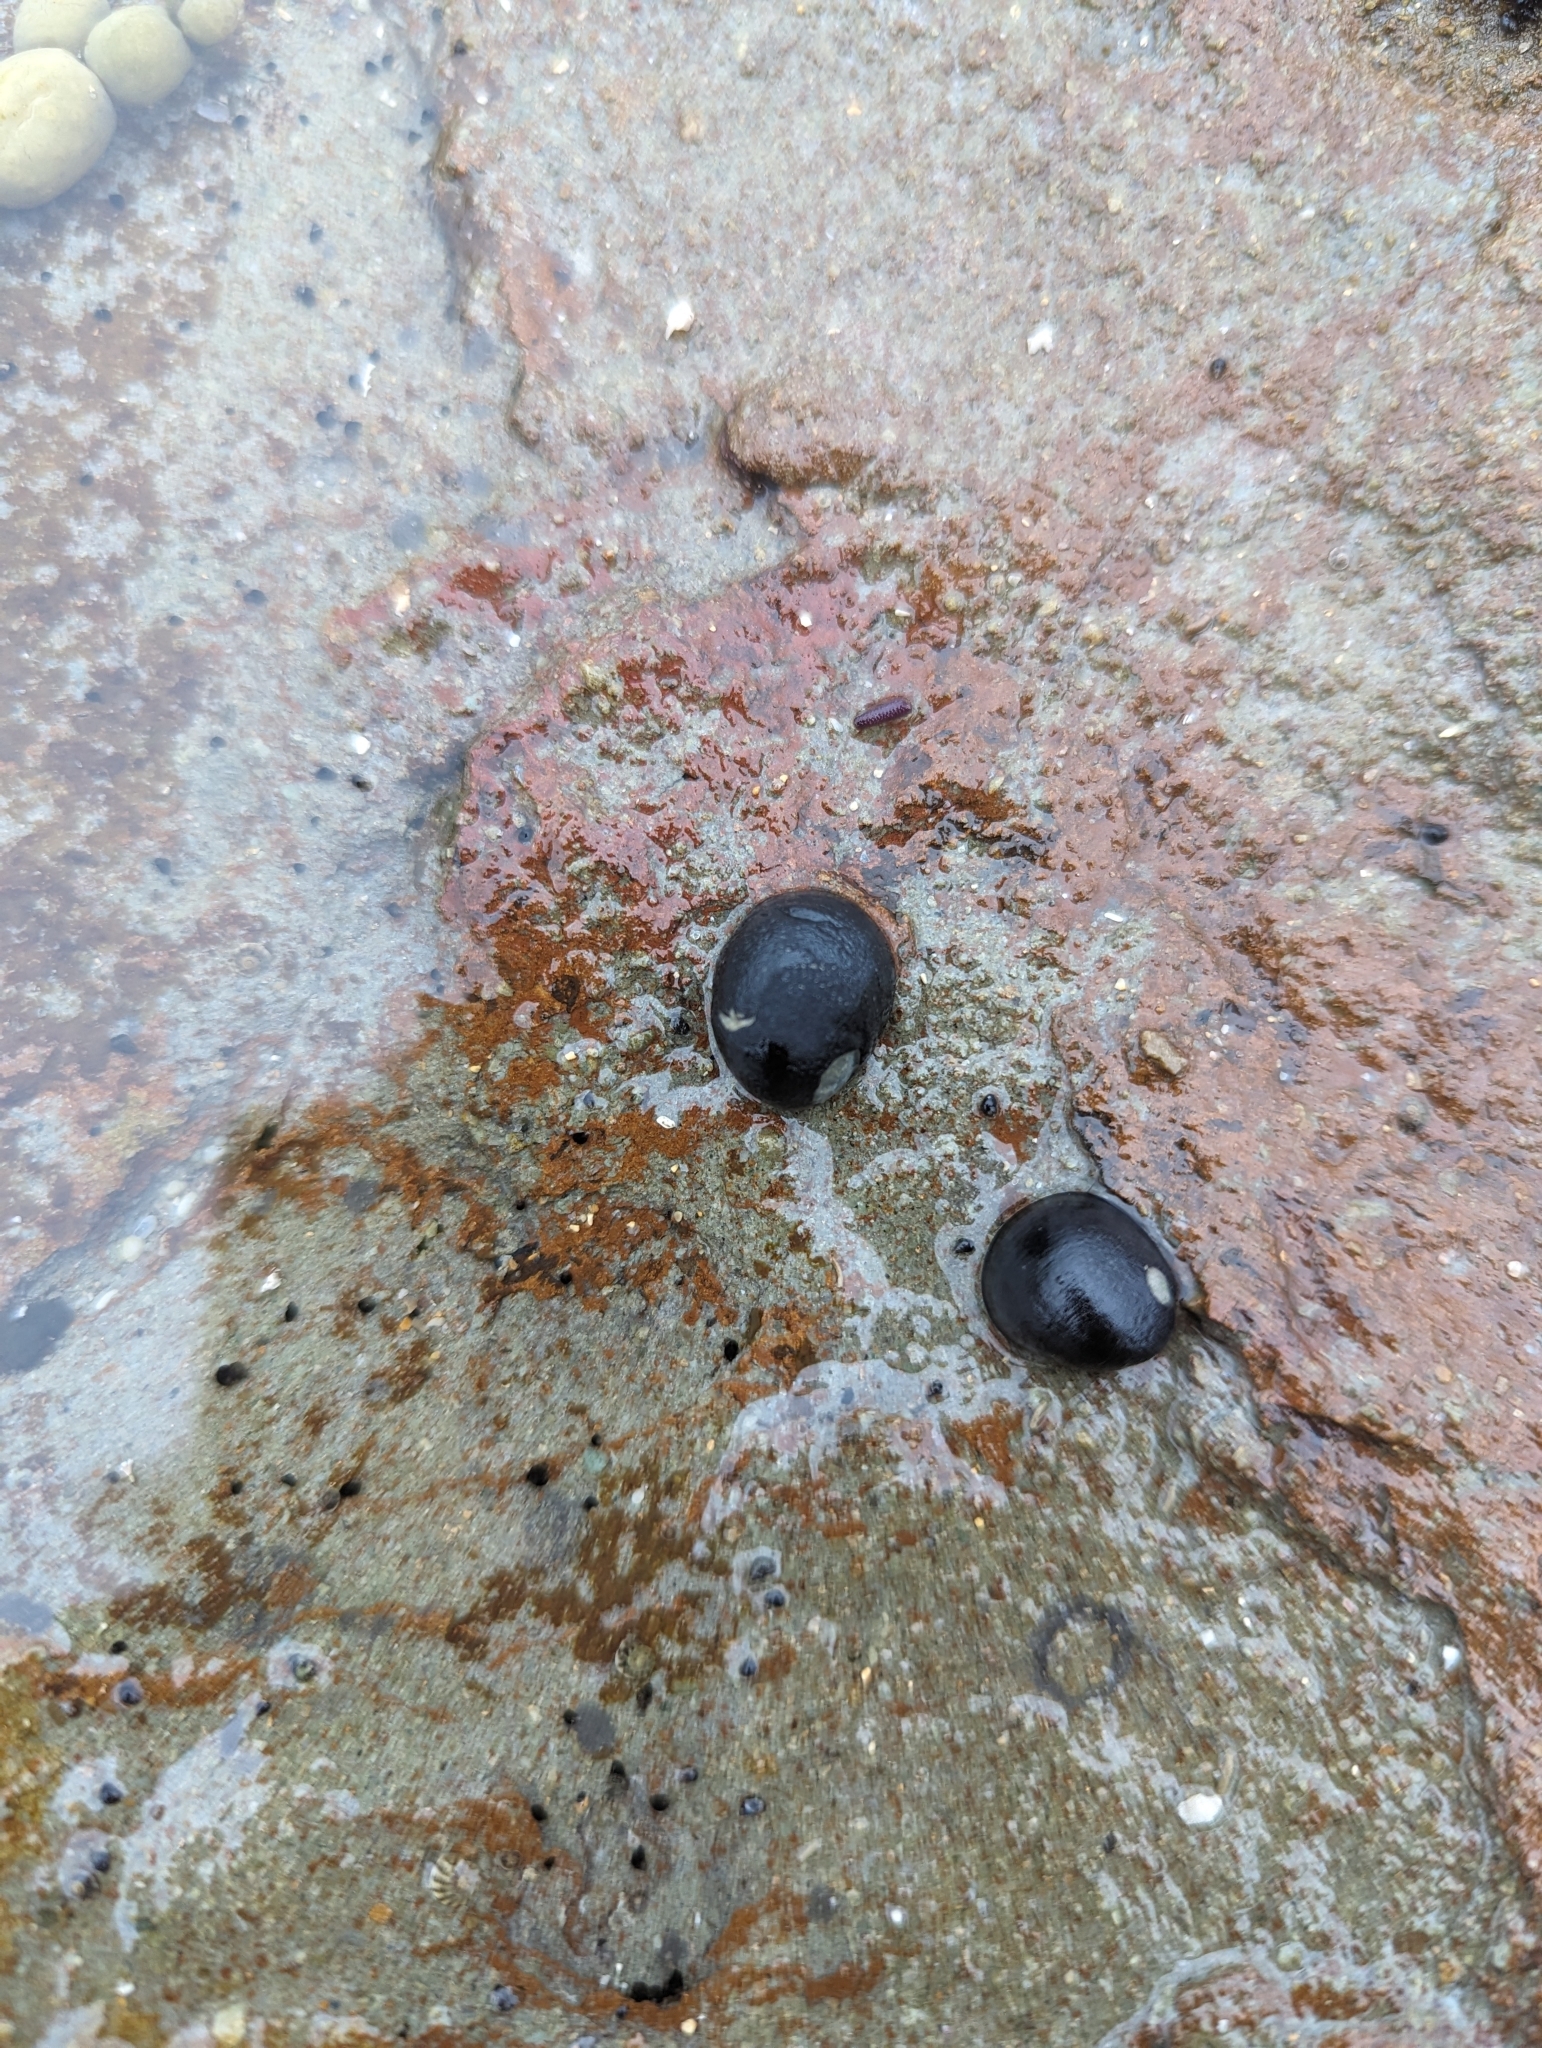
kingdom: Animalia
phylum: Mollusca
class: Gastropoda
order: Cycloneritida
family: Neritidae
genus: Nerita
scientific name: Nerita melanotragus
